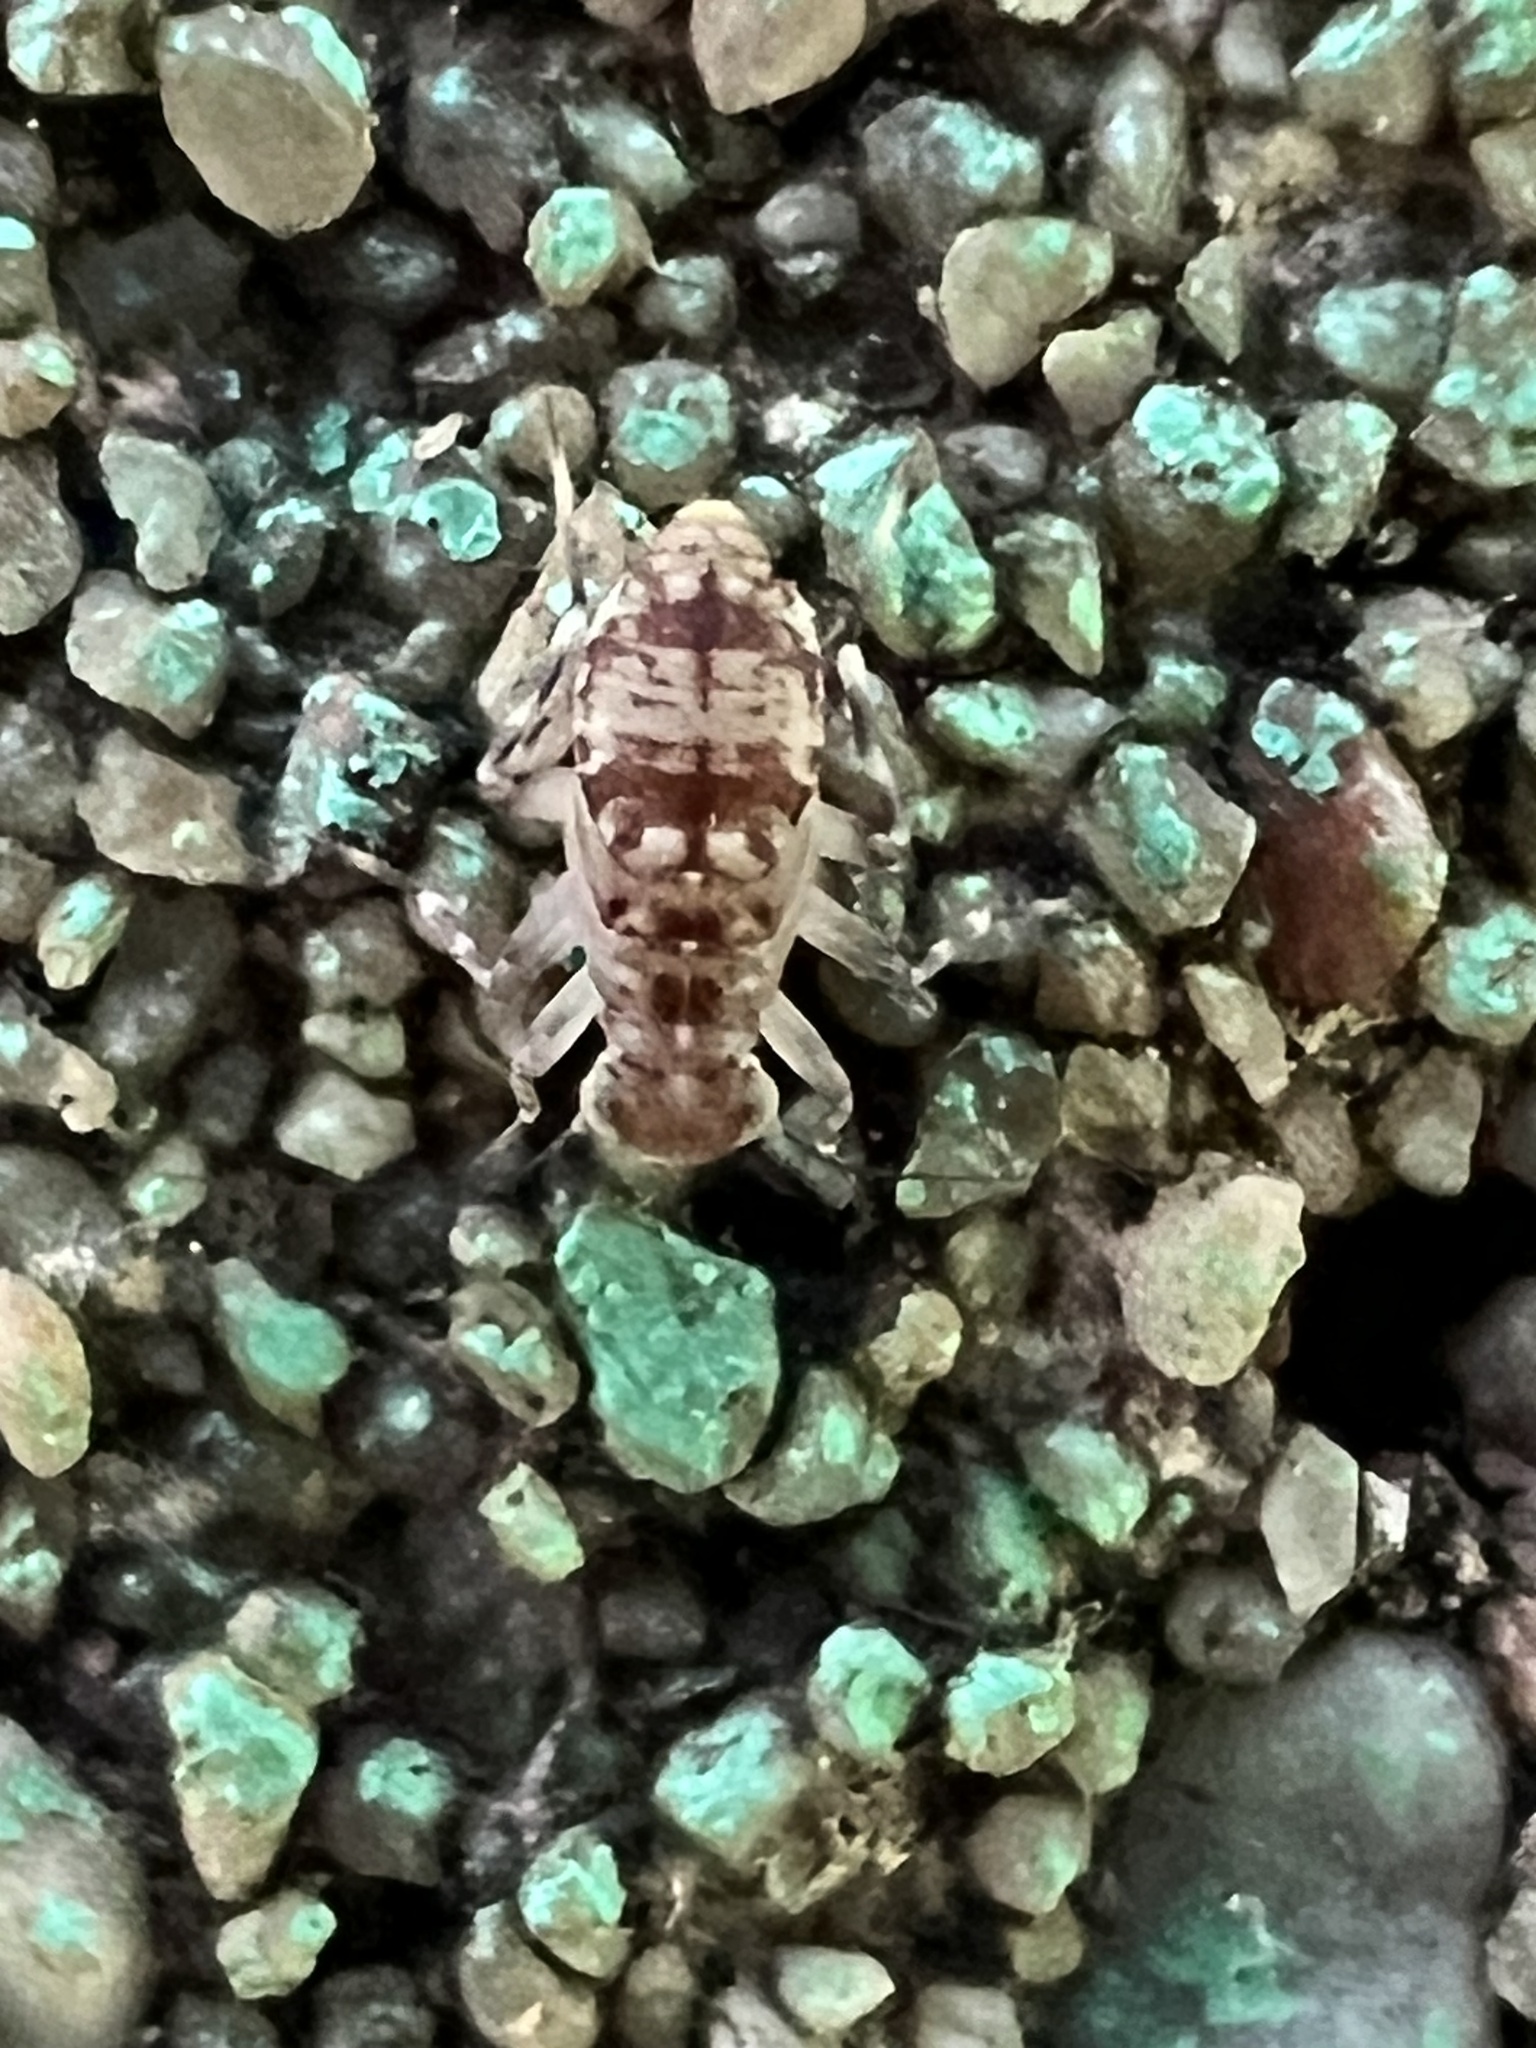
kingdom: Animalia
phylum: Arthropoda
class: Insecta
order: Psocodea
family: Amphientomidae
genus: Stimulopalpus
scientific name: Stimulopalpus japonicus
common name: Tropical bark louse
